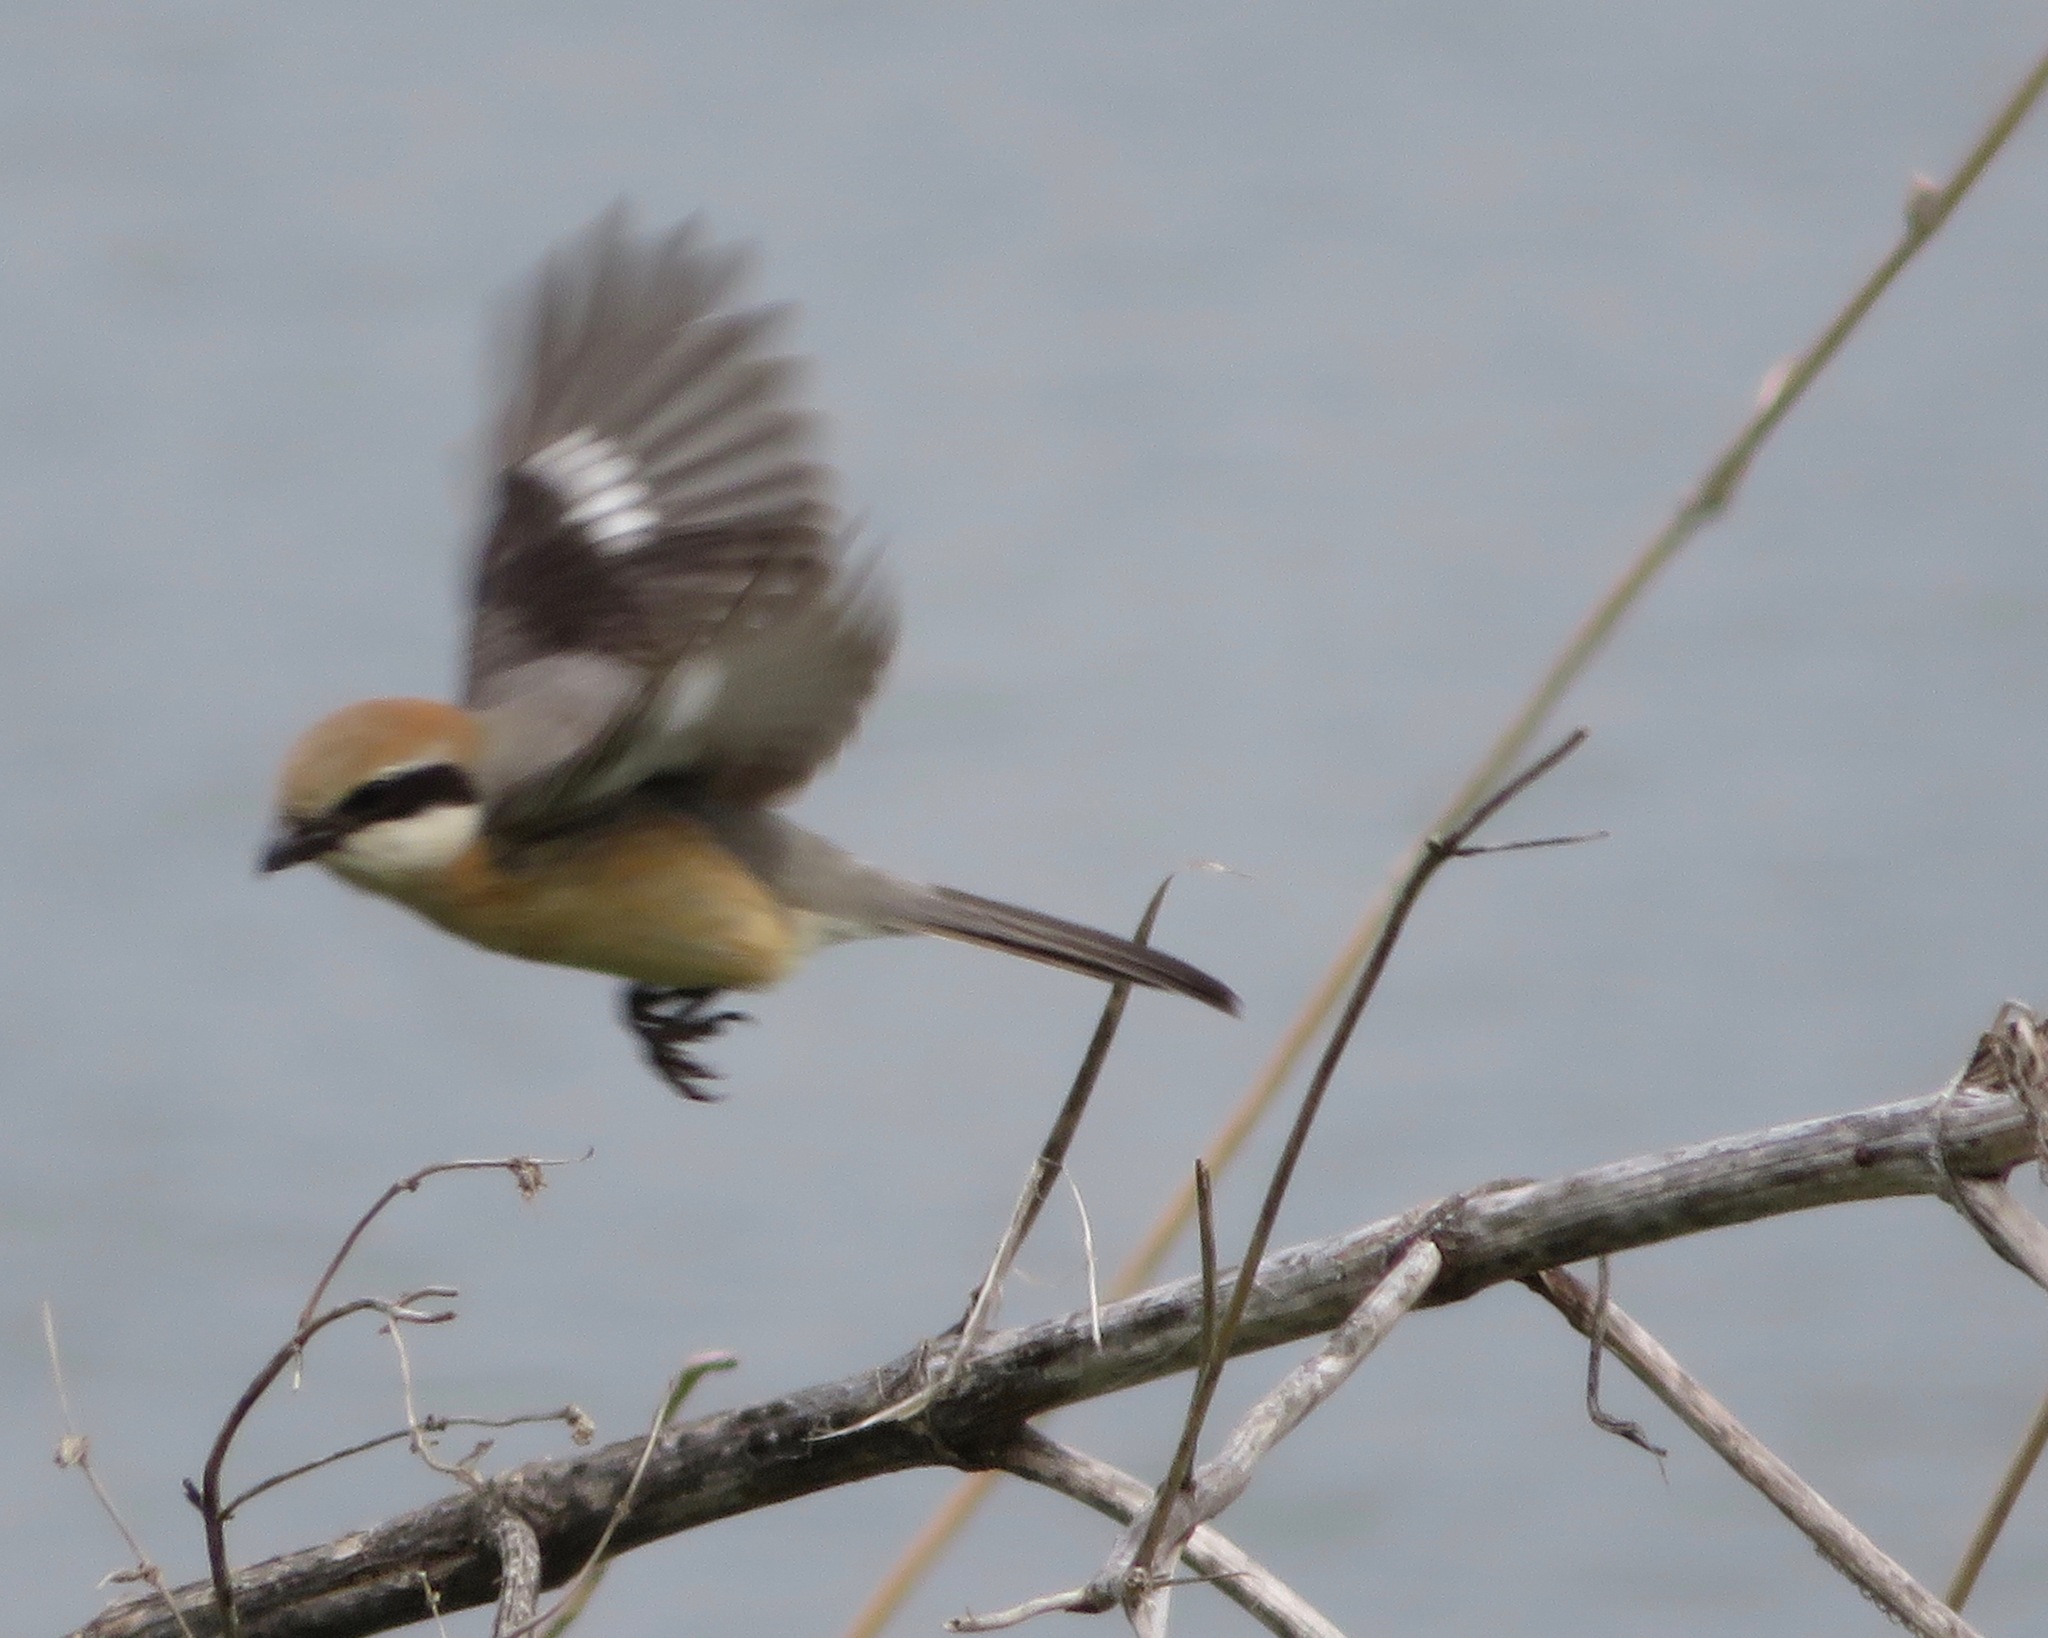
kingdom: Animalia
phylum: Chordata
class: Aves
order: Passeriformes
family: Laniidae
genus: Lanius
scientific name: Lanius bucephalus
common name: Bull-headed shrike
